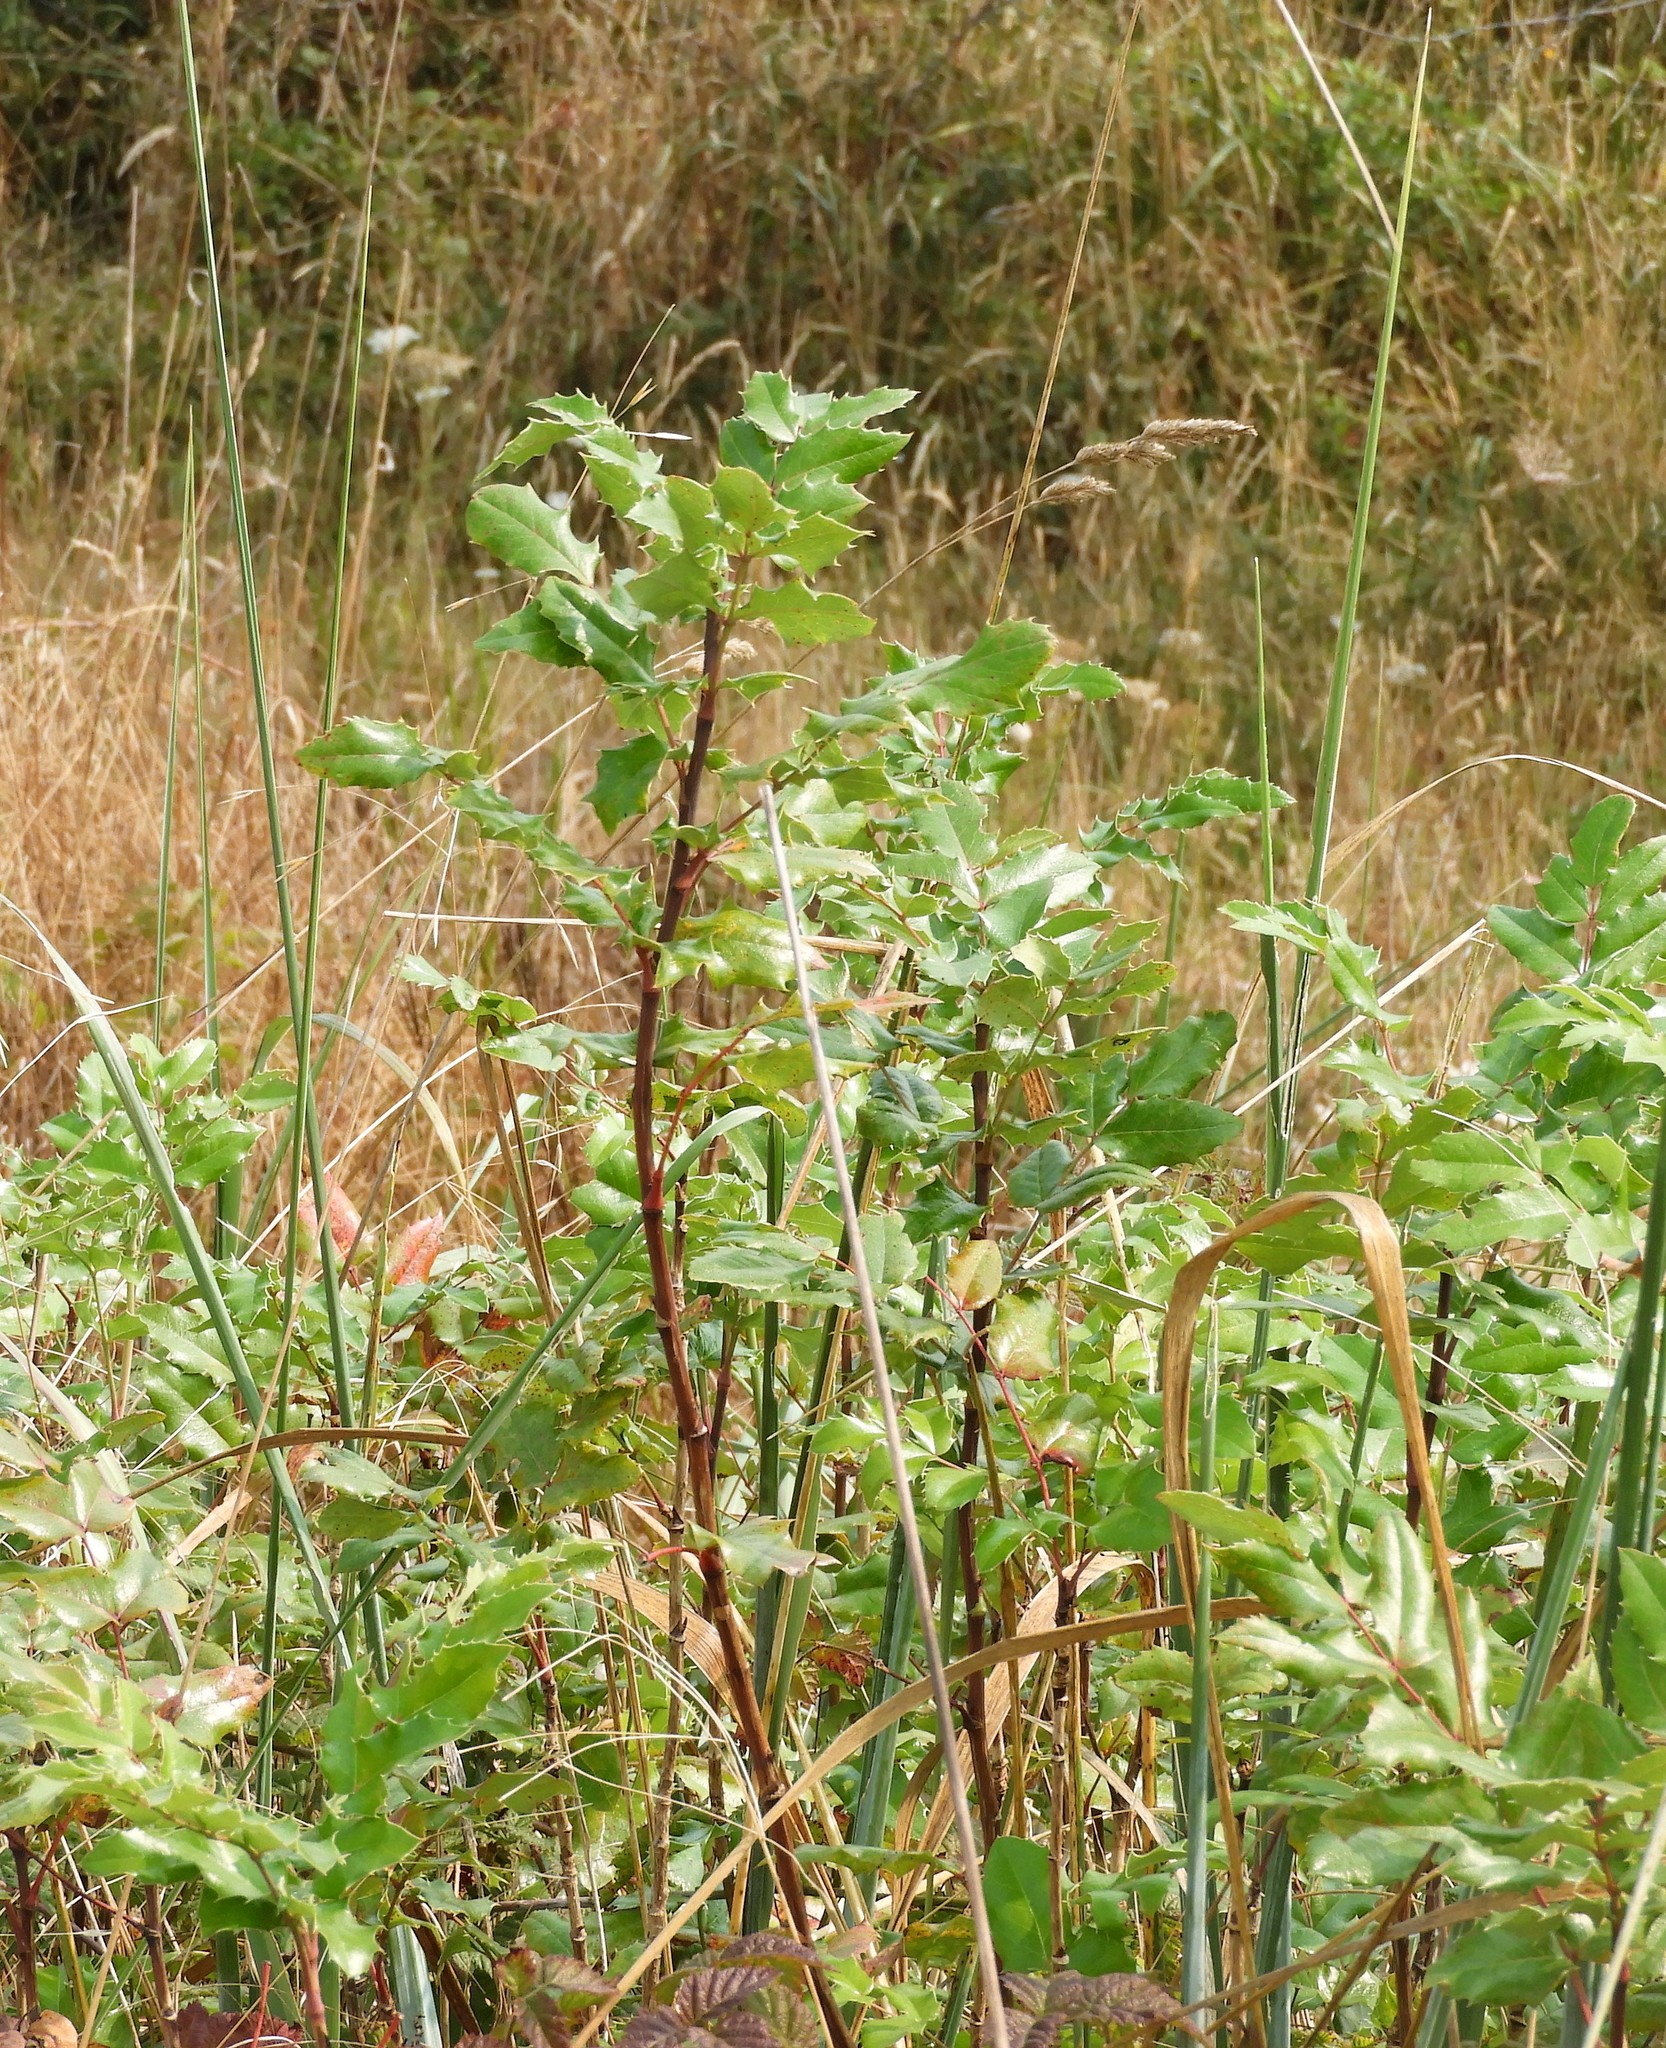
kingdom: Plantae
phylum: Tracheophyta
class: Magnoliopsida
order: Ranunculales
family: Berberidaceae
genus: Mahonia
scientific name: Mahonia aquifolium
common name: Oregon-grape
